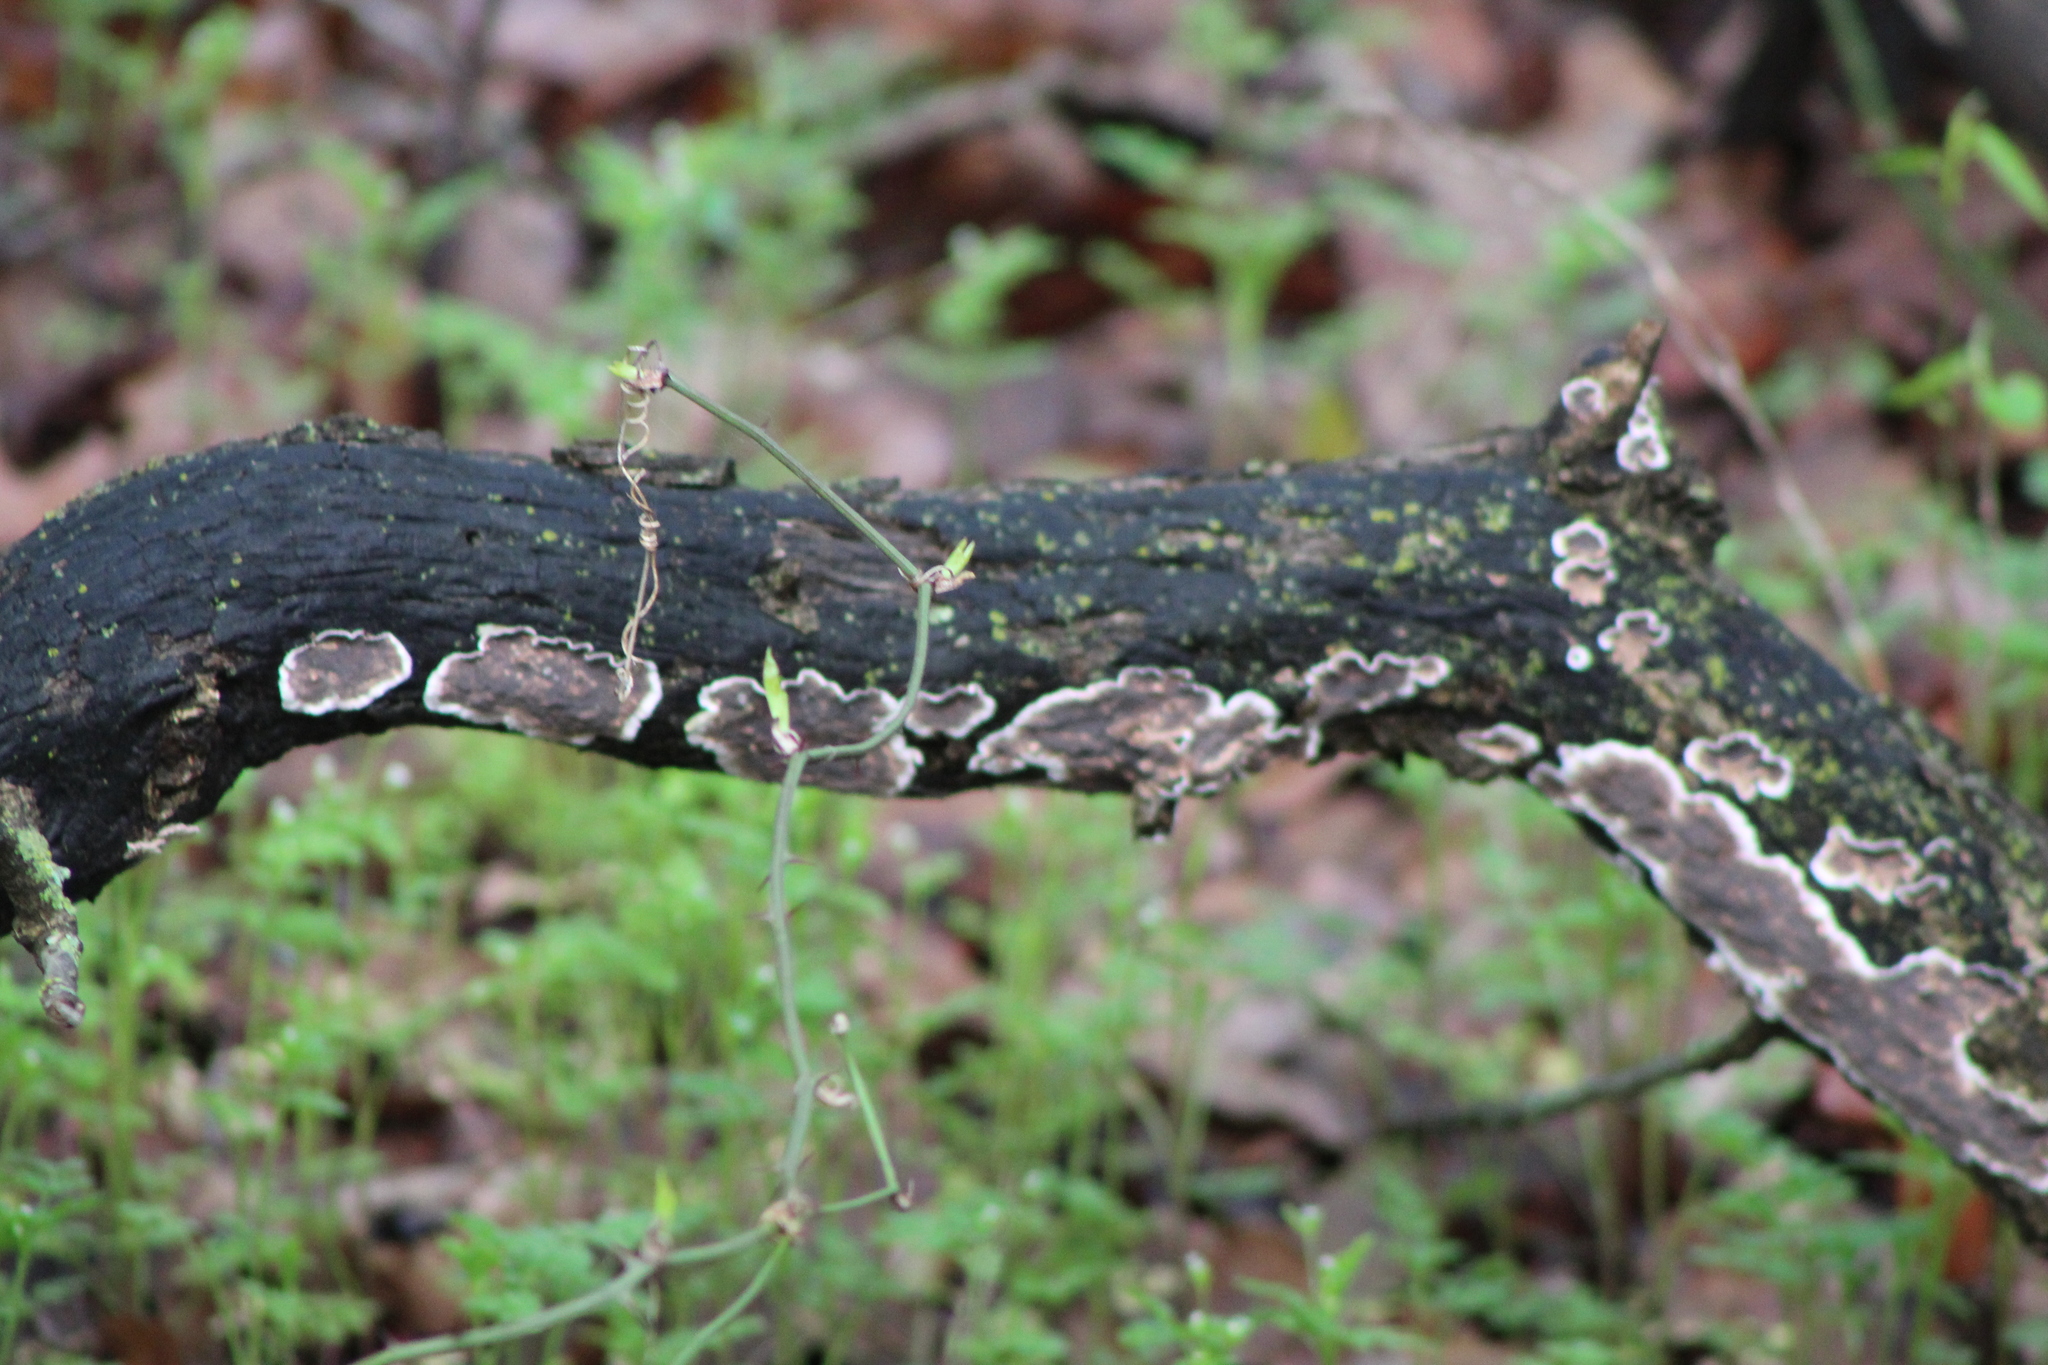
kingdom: Fungi
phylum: Basidiomycota
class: Agaricomycetes
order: Russulales
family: Peniophoraceae
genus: Peniophora
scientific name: Peniophora albobadia
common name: Giraffe spots
